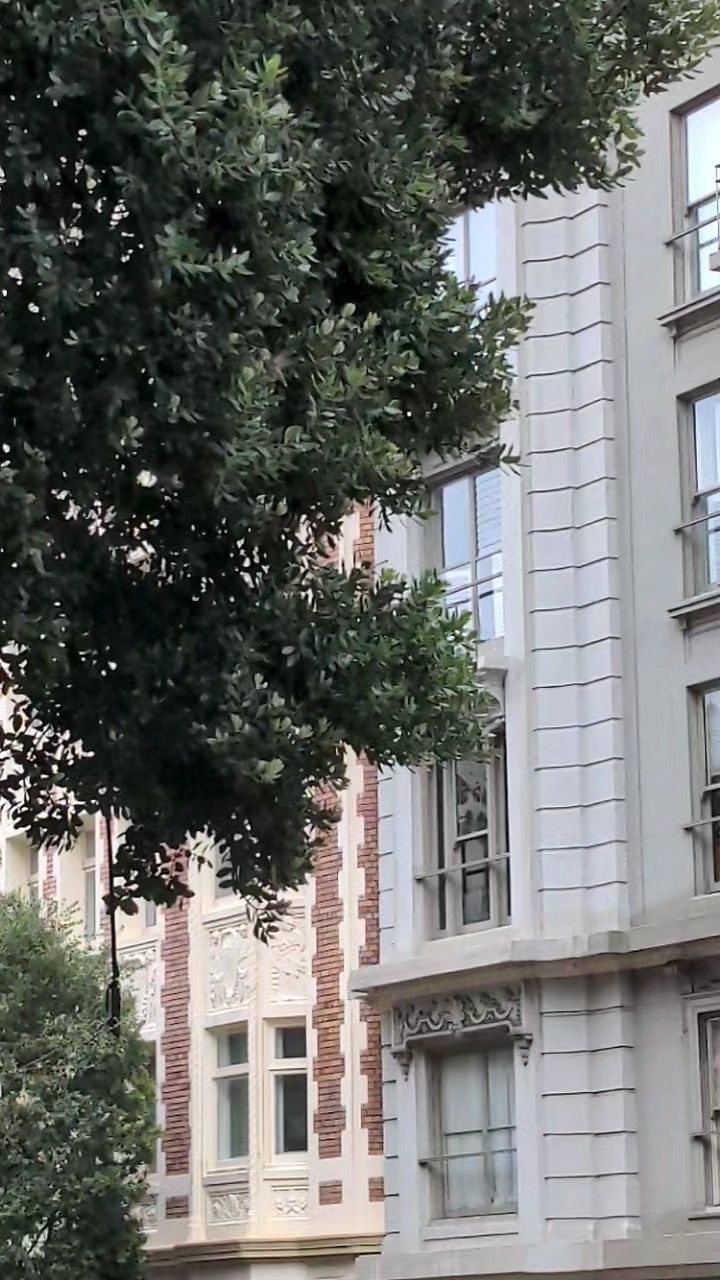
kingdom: Animalia
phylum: Chordata
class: Aves
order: Apodiformes
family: Trochilidae
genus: Calypte
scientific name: Calypte anna
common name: Anna's hummingbird
